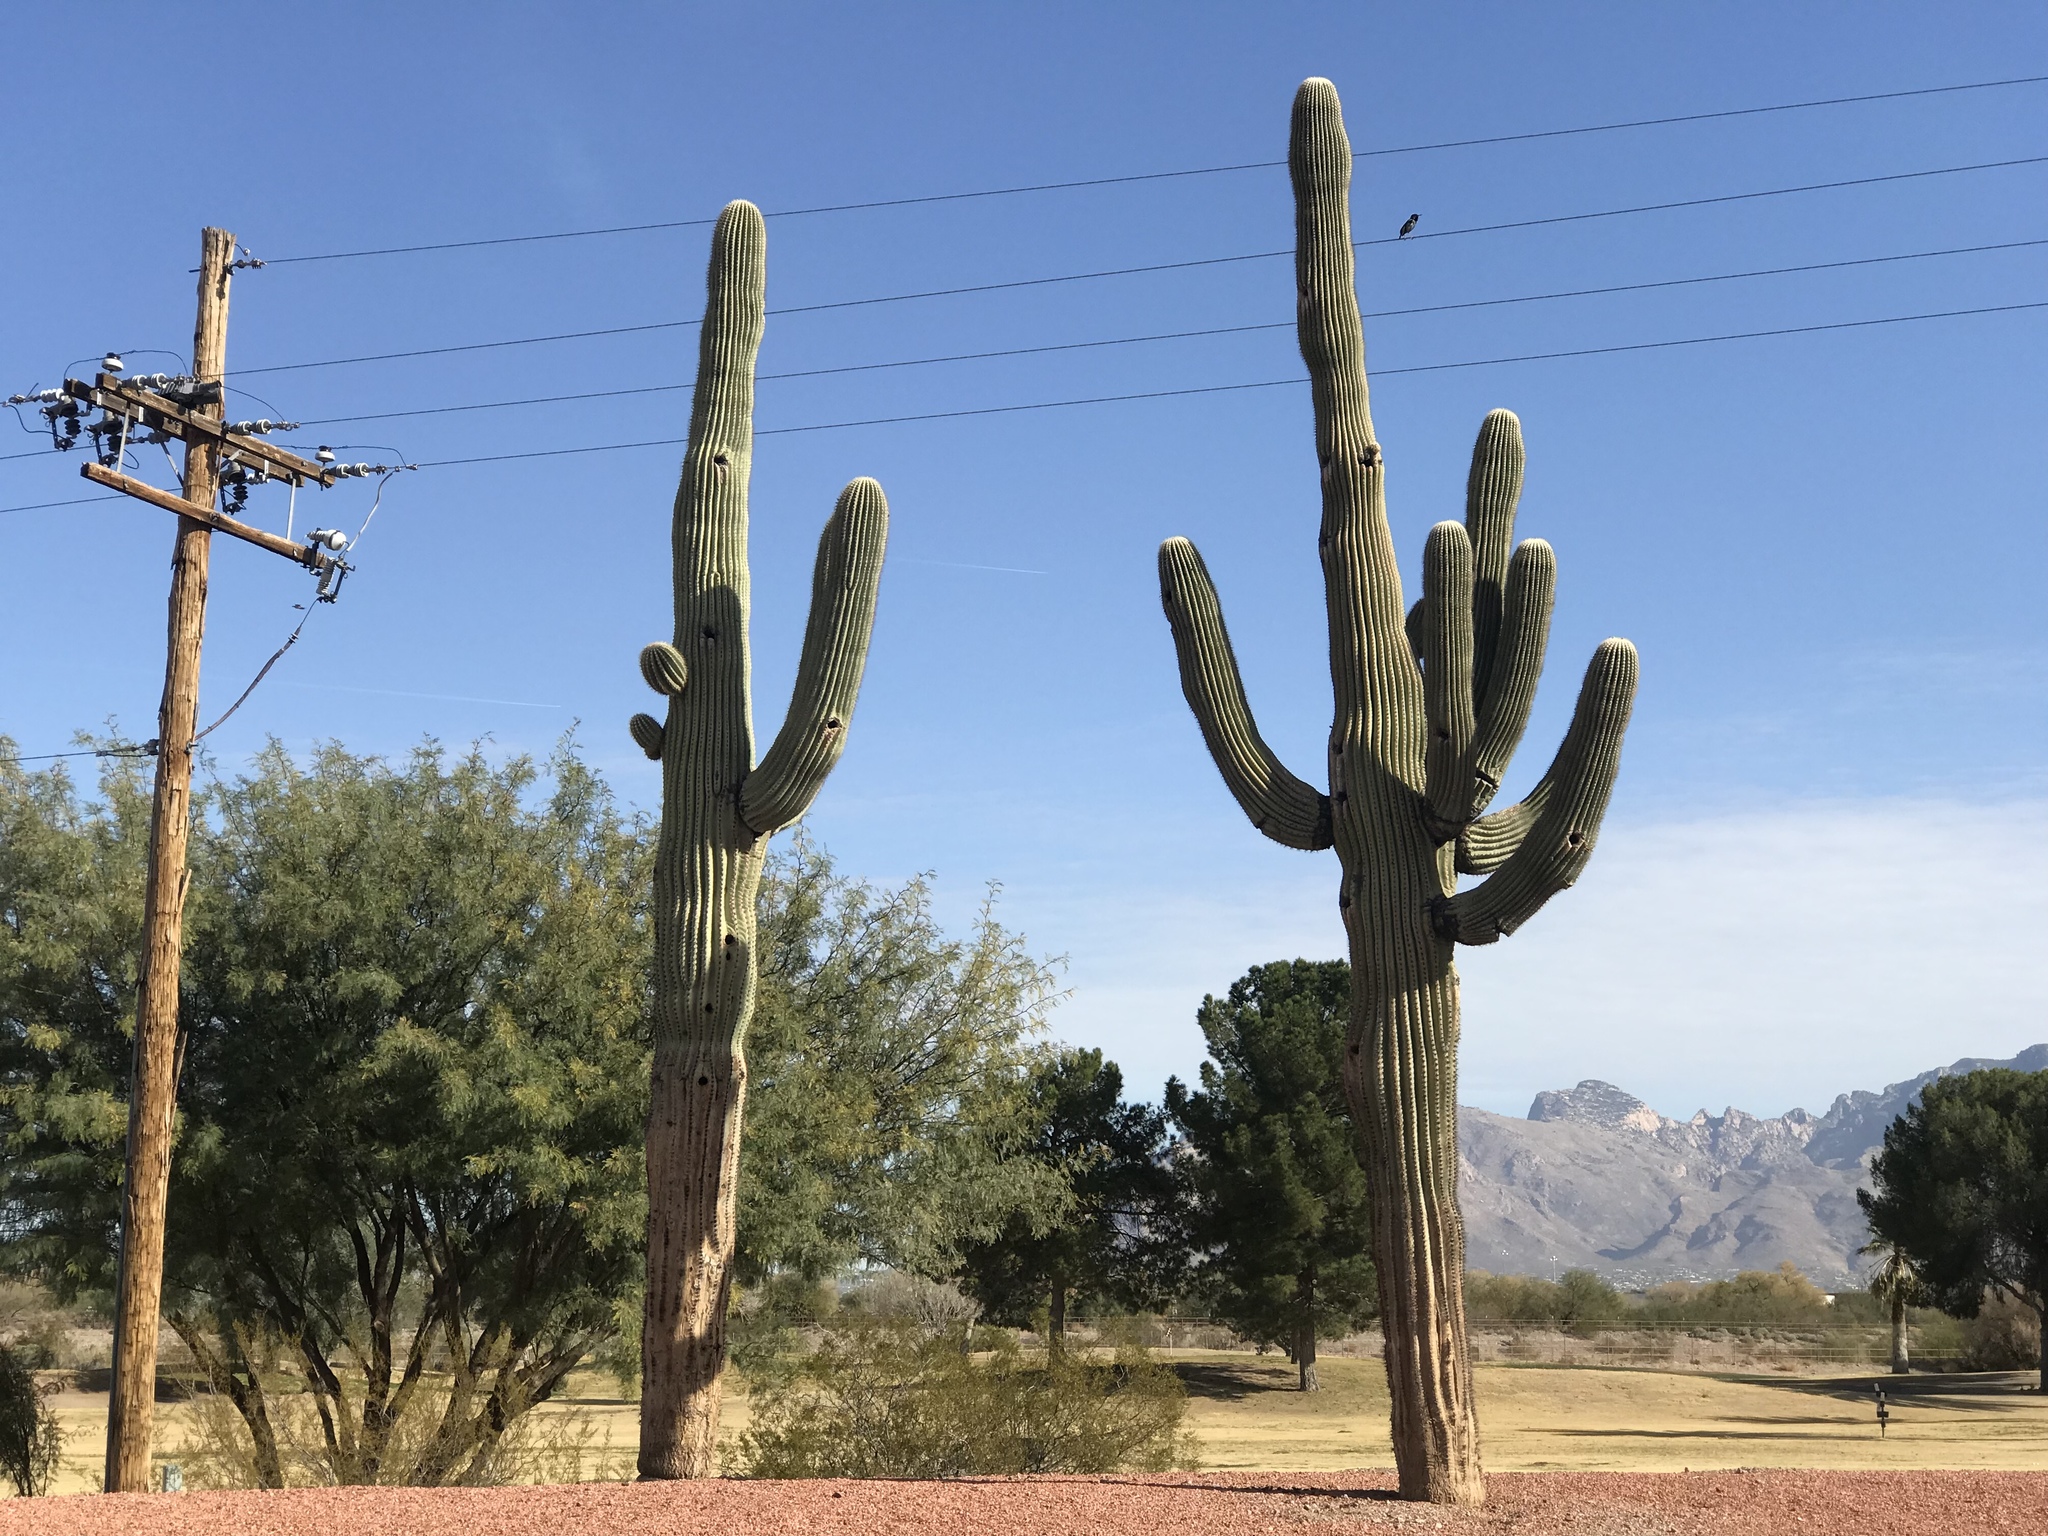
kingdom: Plantae
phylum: Tracheophyta
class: Magnoliopsida
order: Caryophyllales
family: Cactaceae
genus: Carnegiea
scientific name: Carnegiea gigantea
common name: Saguaro
